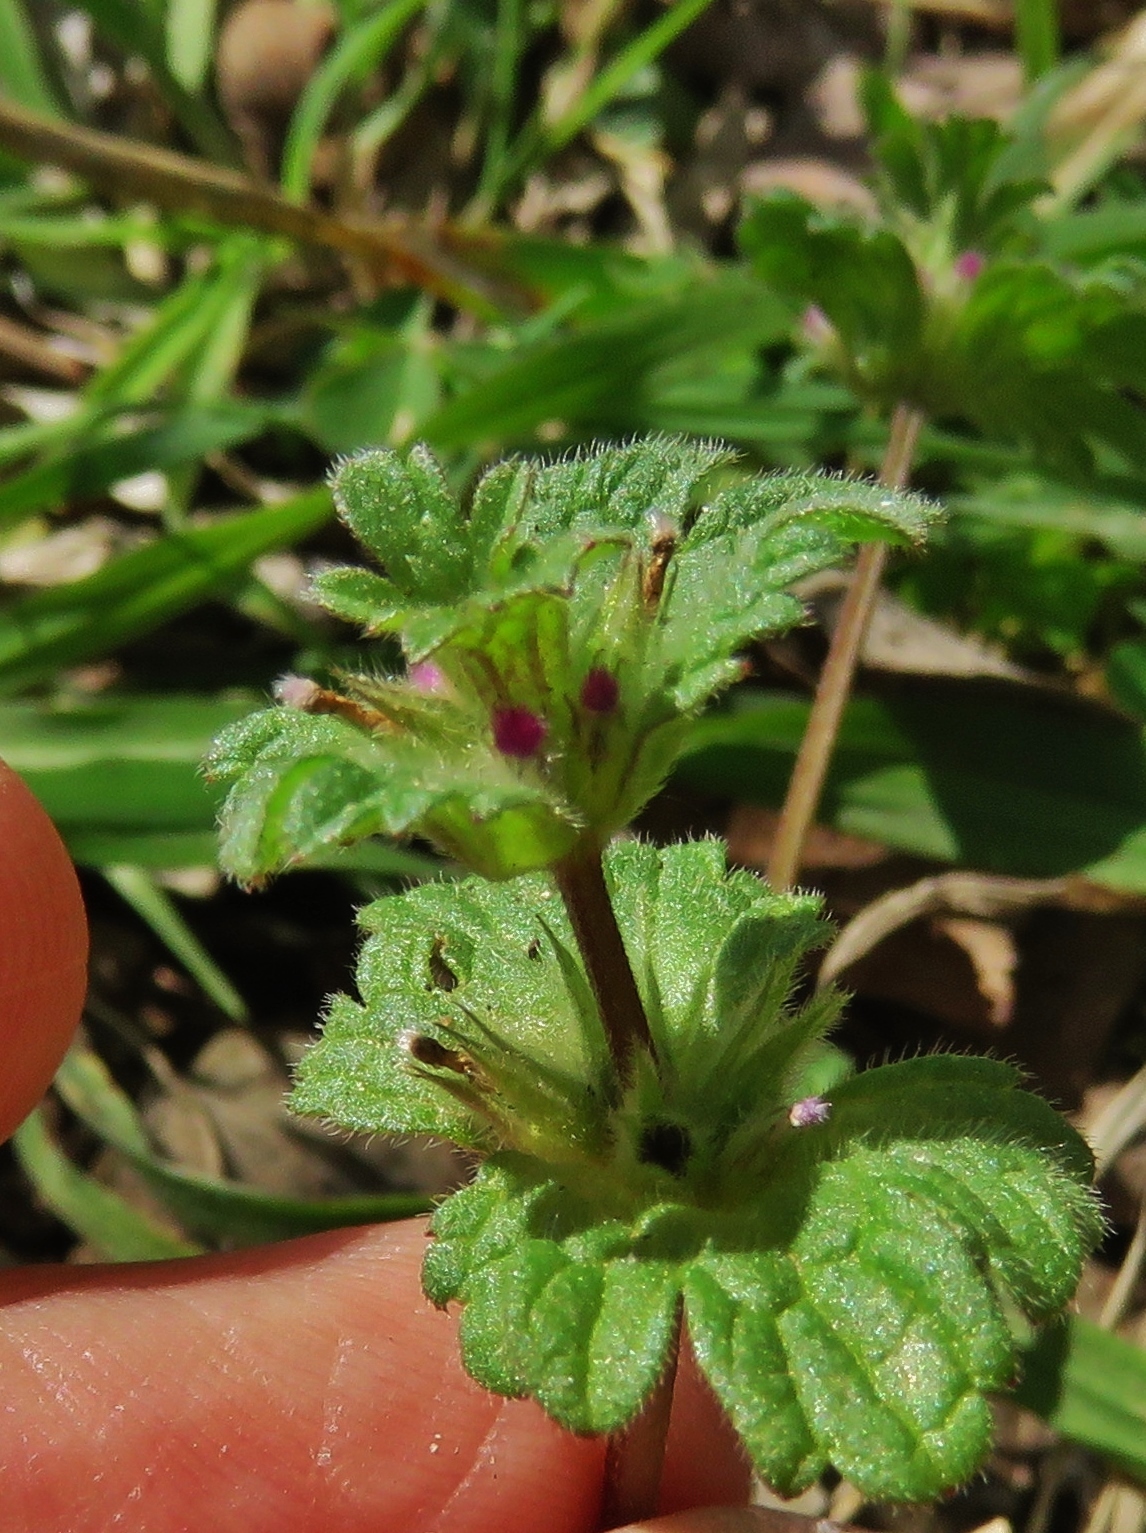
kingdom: Plantae
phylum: Tracheophyta
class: Magnoliopsida
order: Lamiales
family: Lamiaceae
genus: Lamium
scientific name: Lamium amplexicaule
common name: Henbit dead-nettle
